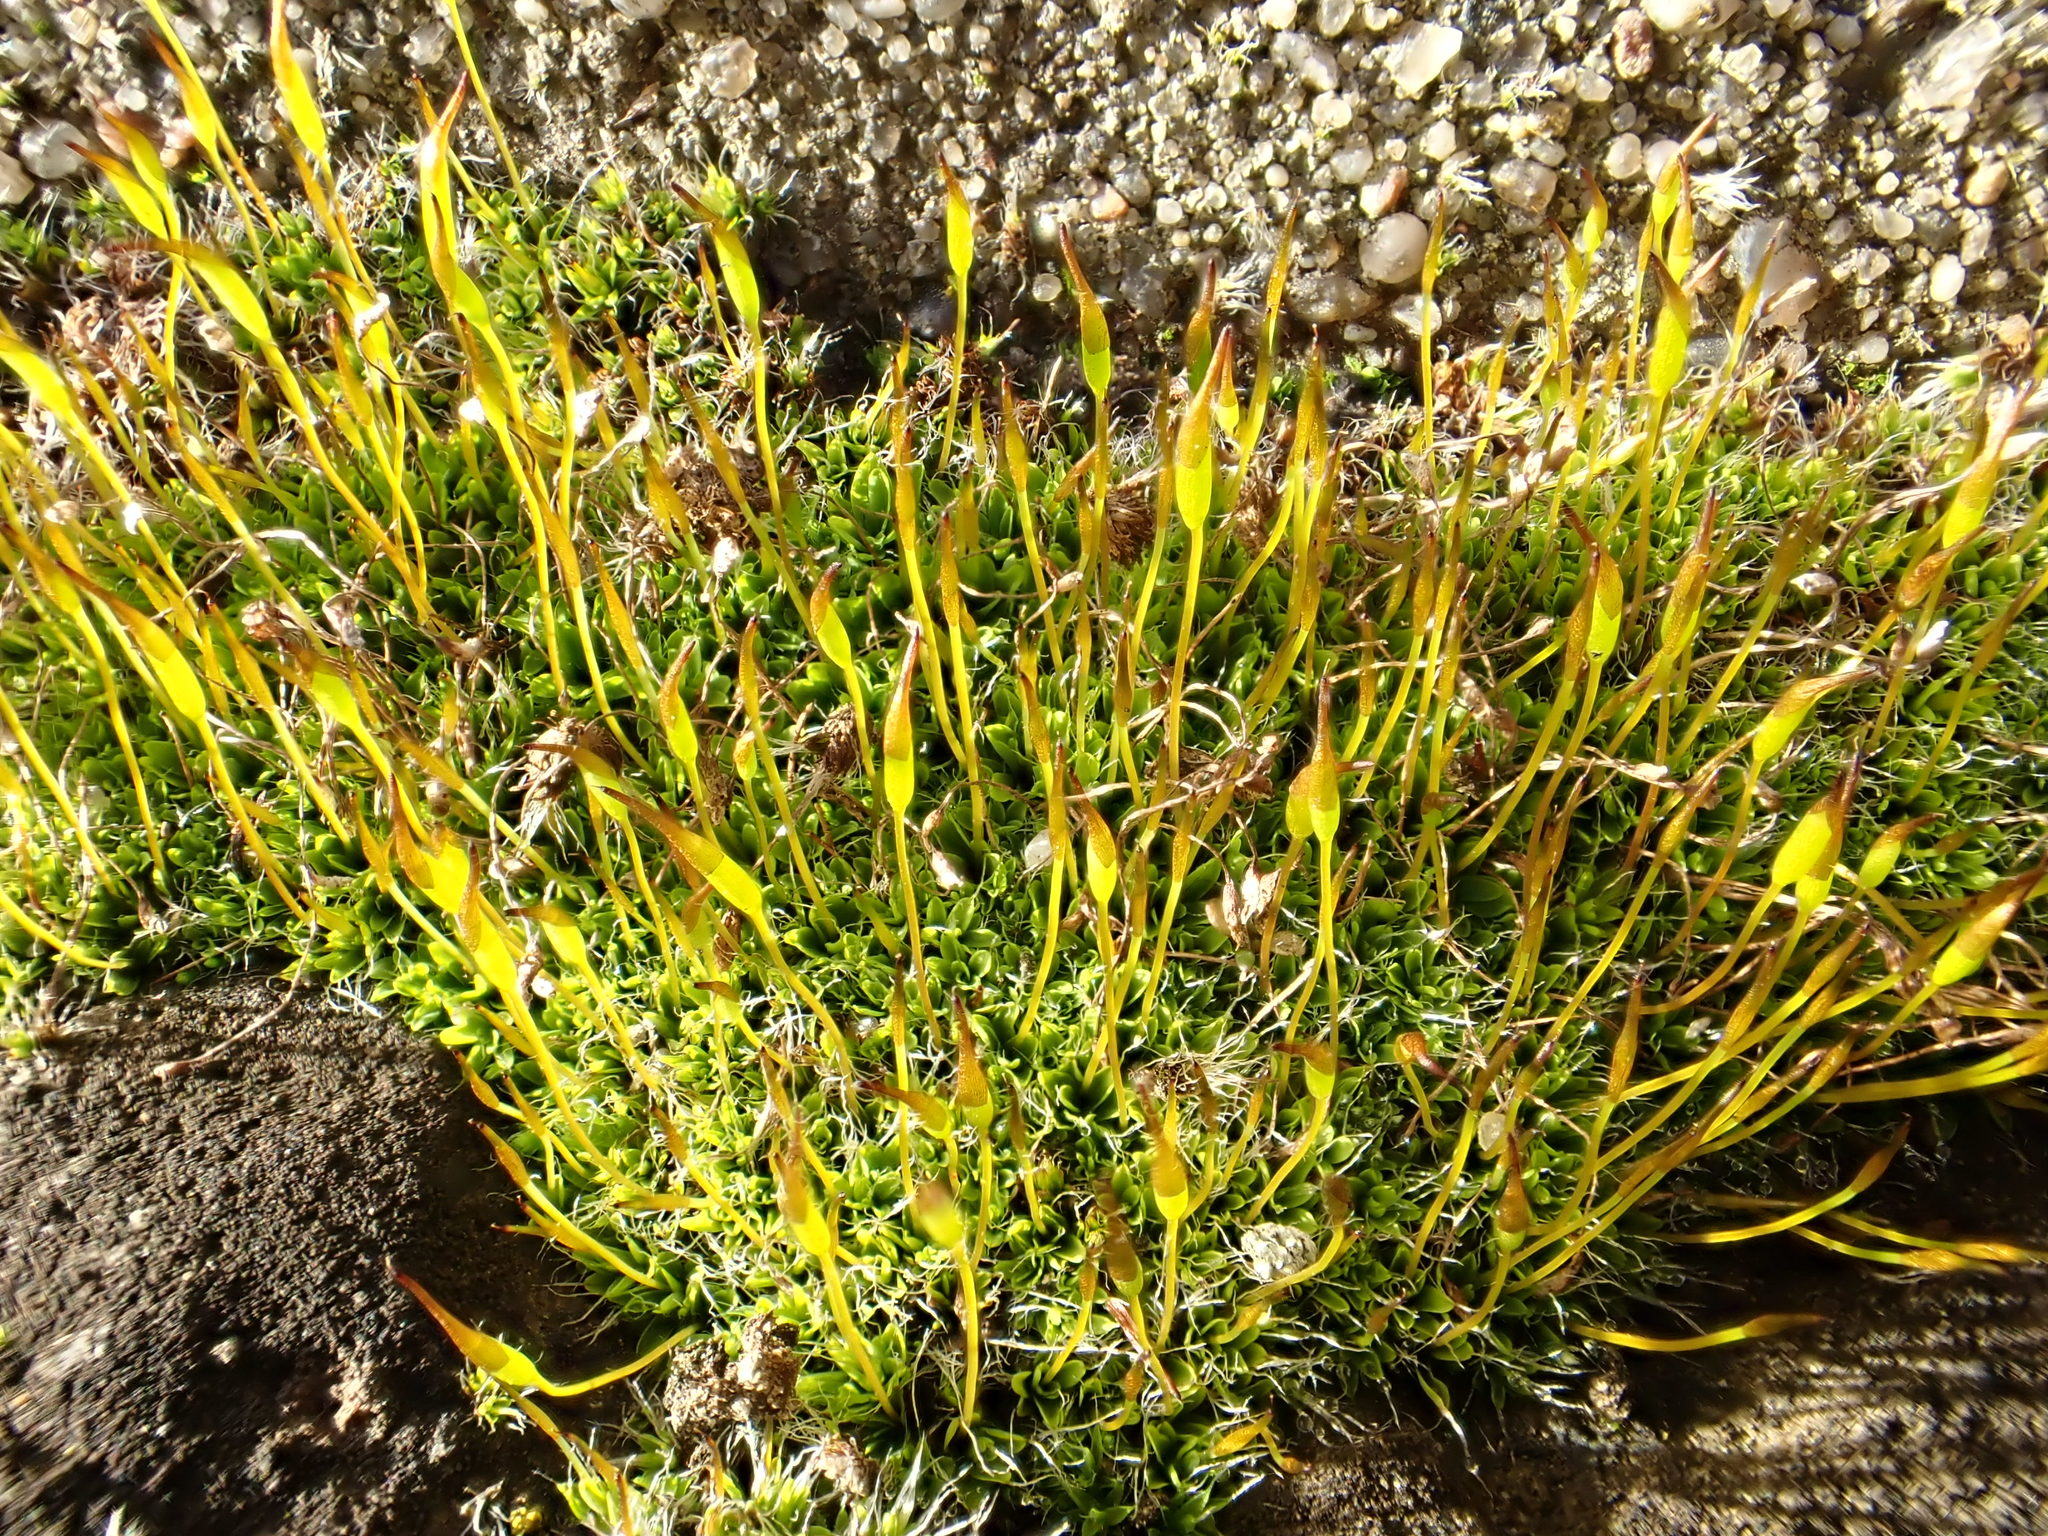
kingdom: Plantae
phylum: Bryophyta
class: Bryopsida
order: Pottiales
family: Pottiaceae
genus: Tortula
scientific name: Tortula muralis
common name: Wall screw-moss
